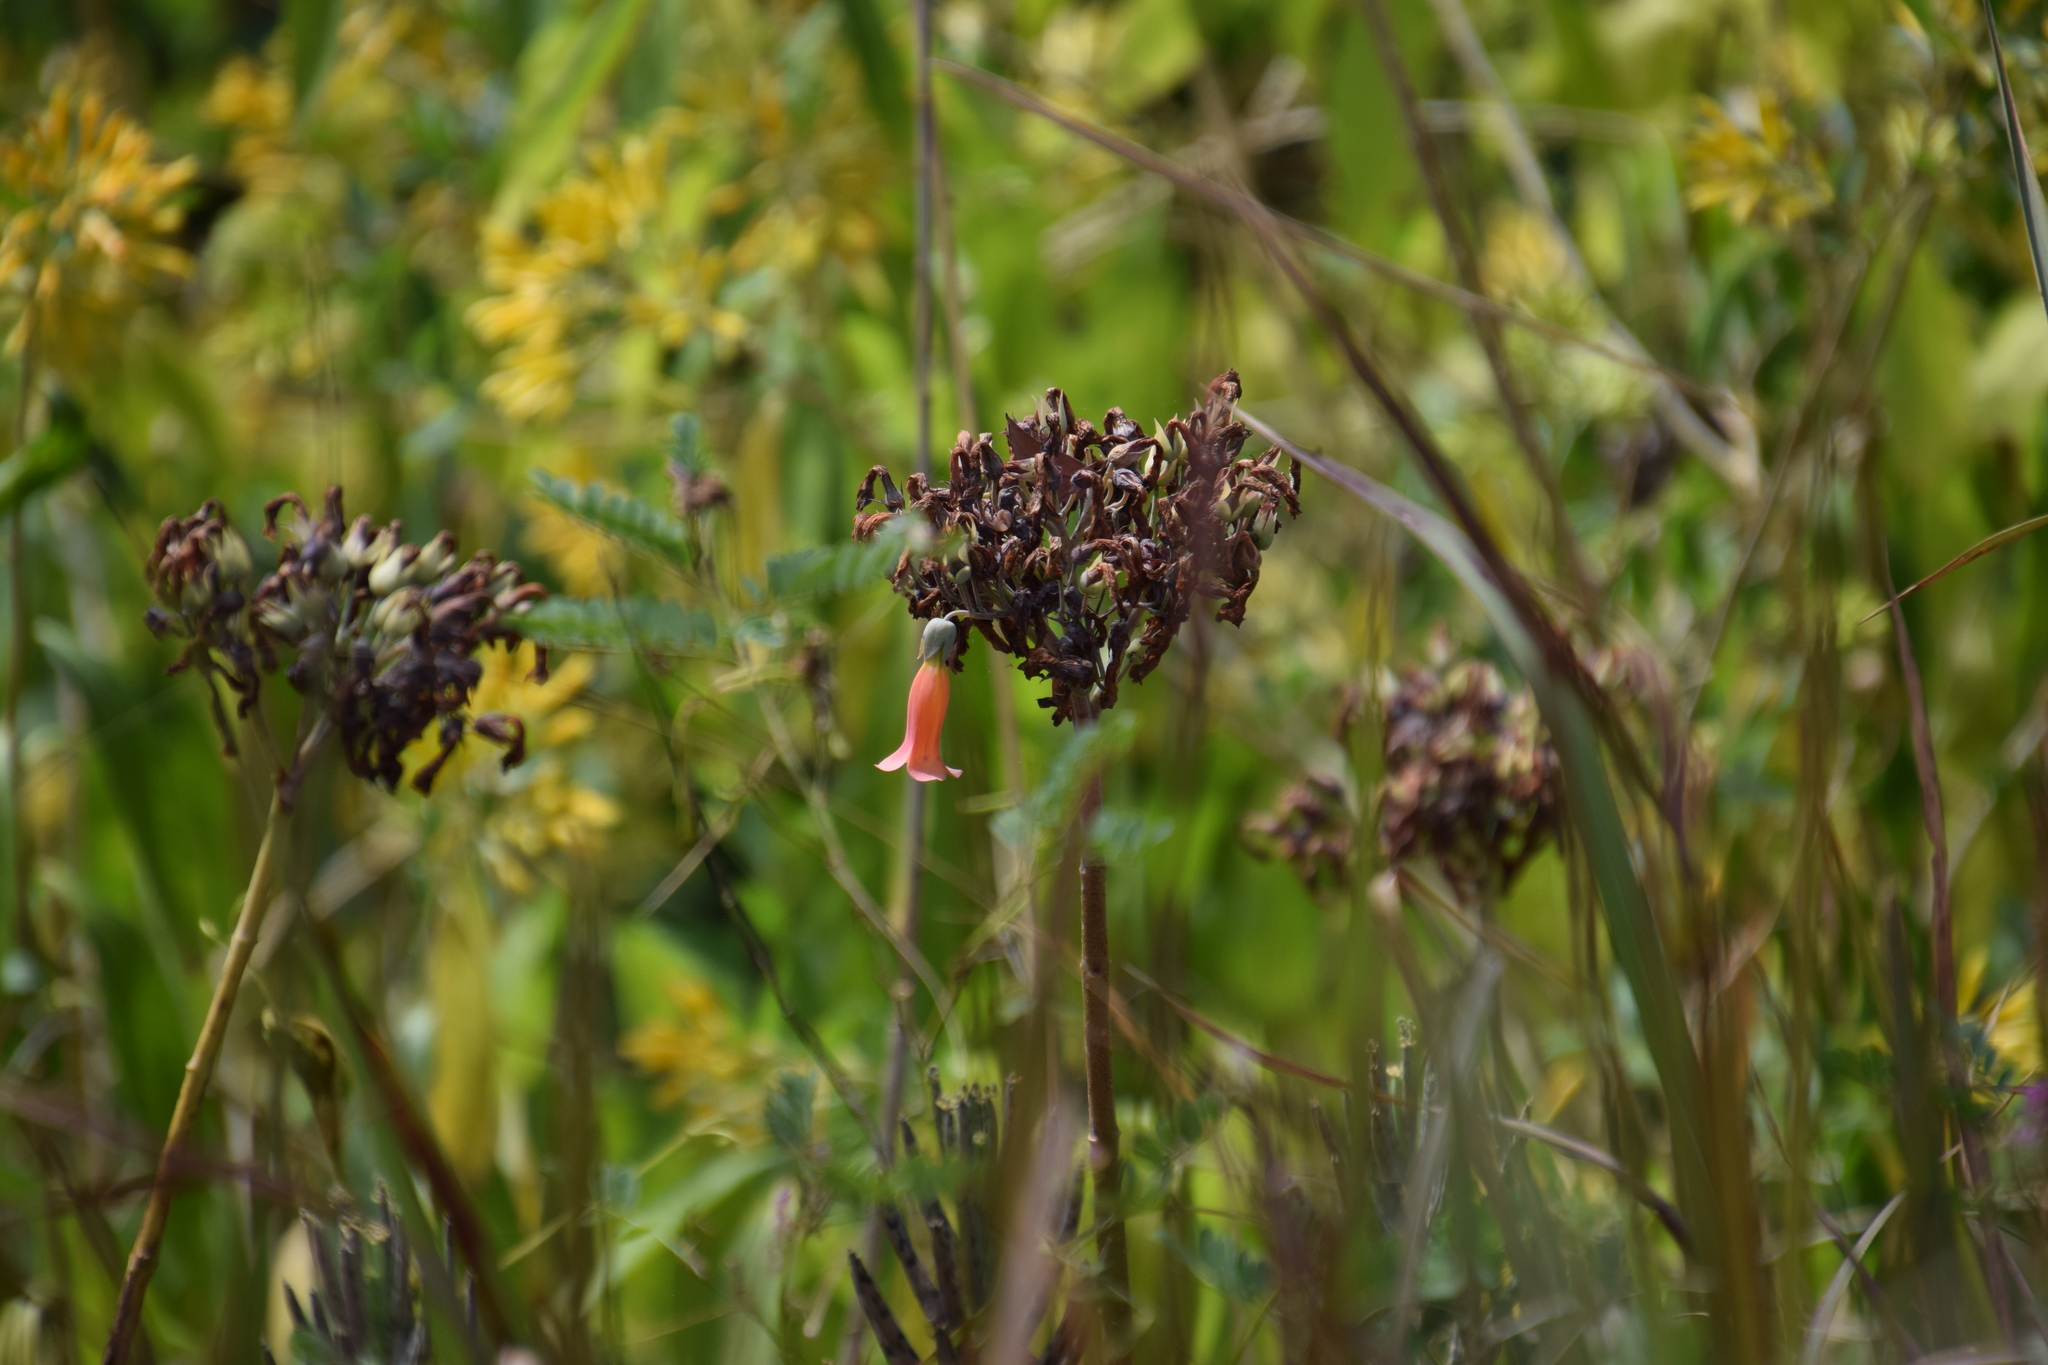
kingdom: Plantae
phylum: Tracheophyta
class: Magnoliopsida
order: Saxifragales
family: Crassulaceae
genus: Kalanchoe
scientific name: Kalanchoe delagoensis
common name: Chandelier plant
